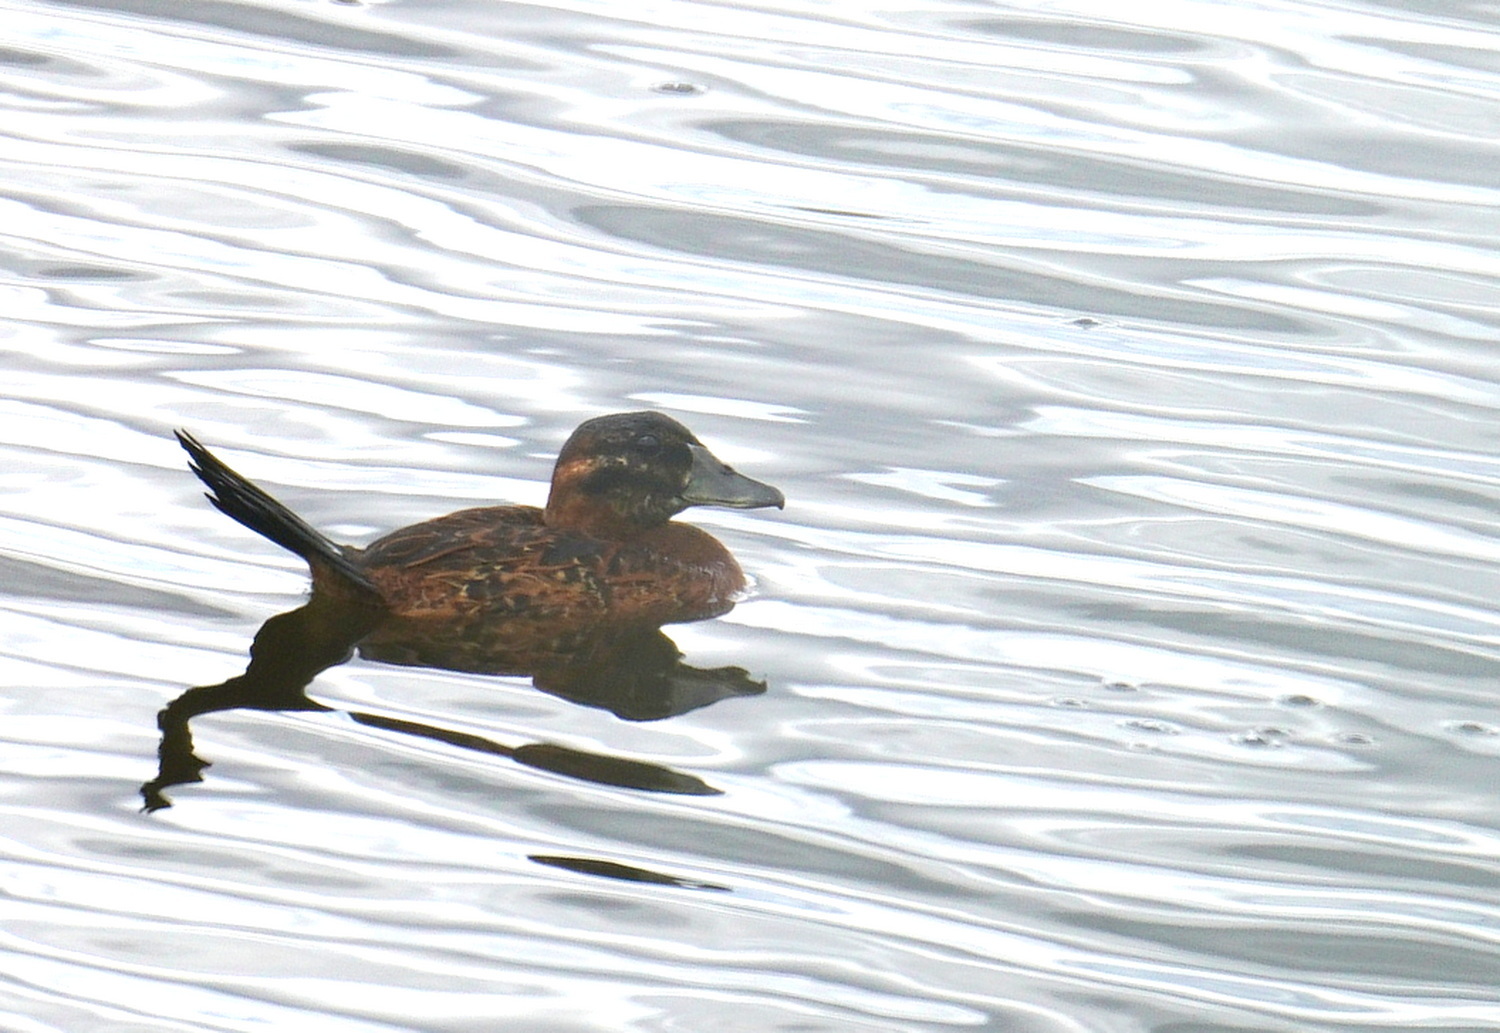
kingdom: Animalia
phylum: Chordata
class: Aves
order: Anseriformes
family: Anatidae
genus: Nomonyx
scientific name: Nomonyx dominicus
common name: Masked duck
